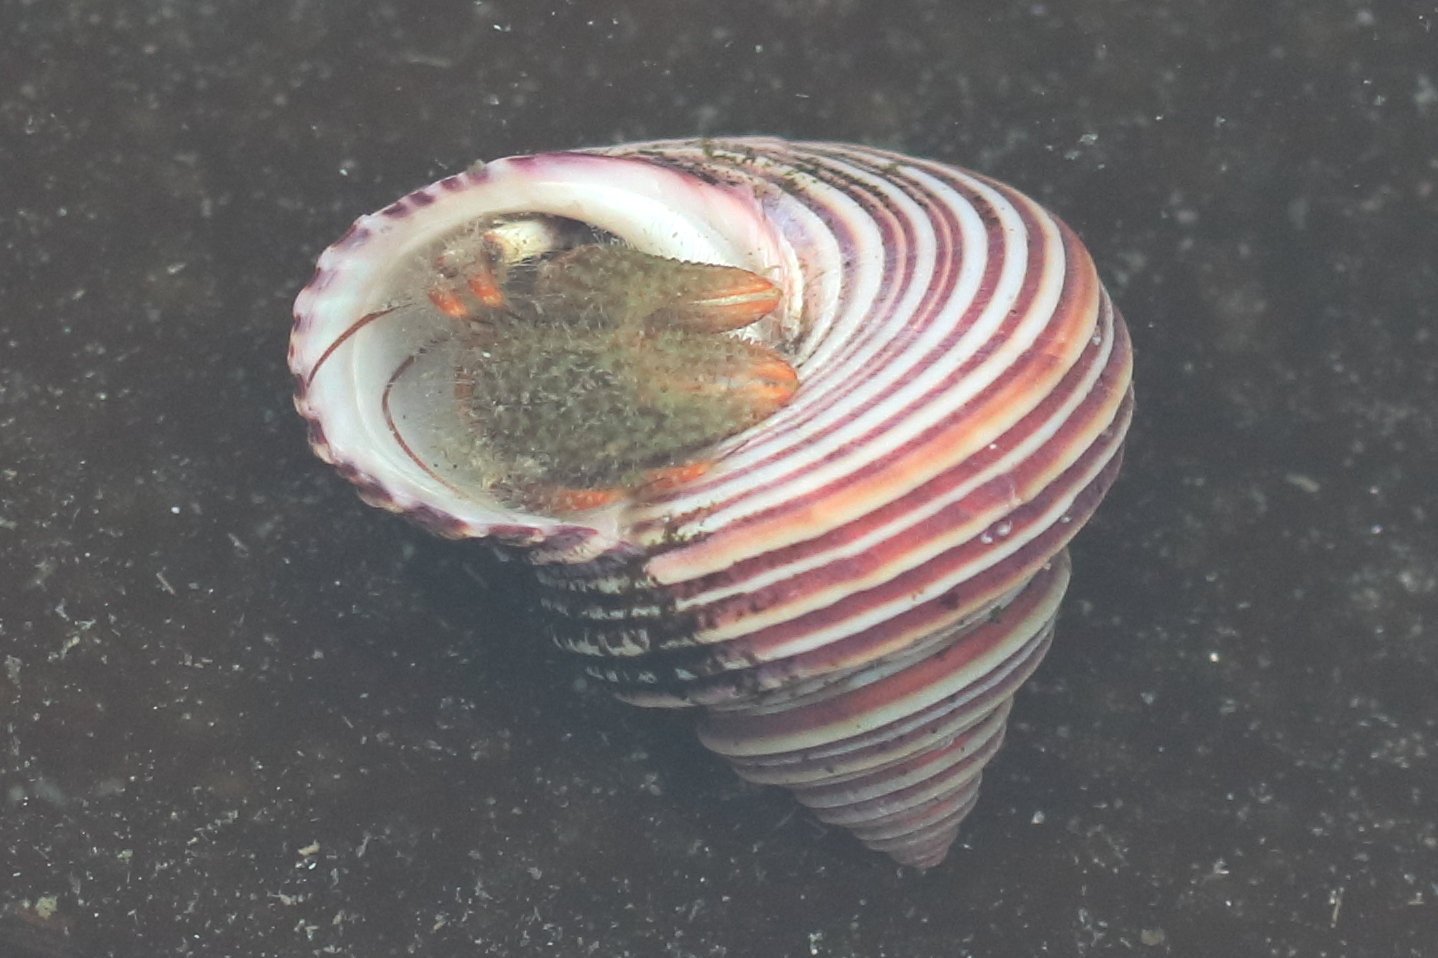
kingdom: Animalia
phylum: Arthropoda
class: Malacostraca
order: Decapoda
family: Paguridae
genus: Pagurus
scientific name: Pagurus caurinus
